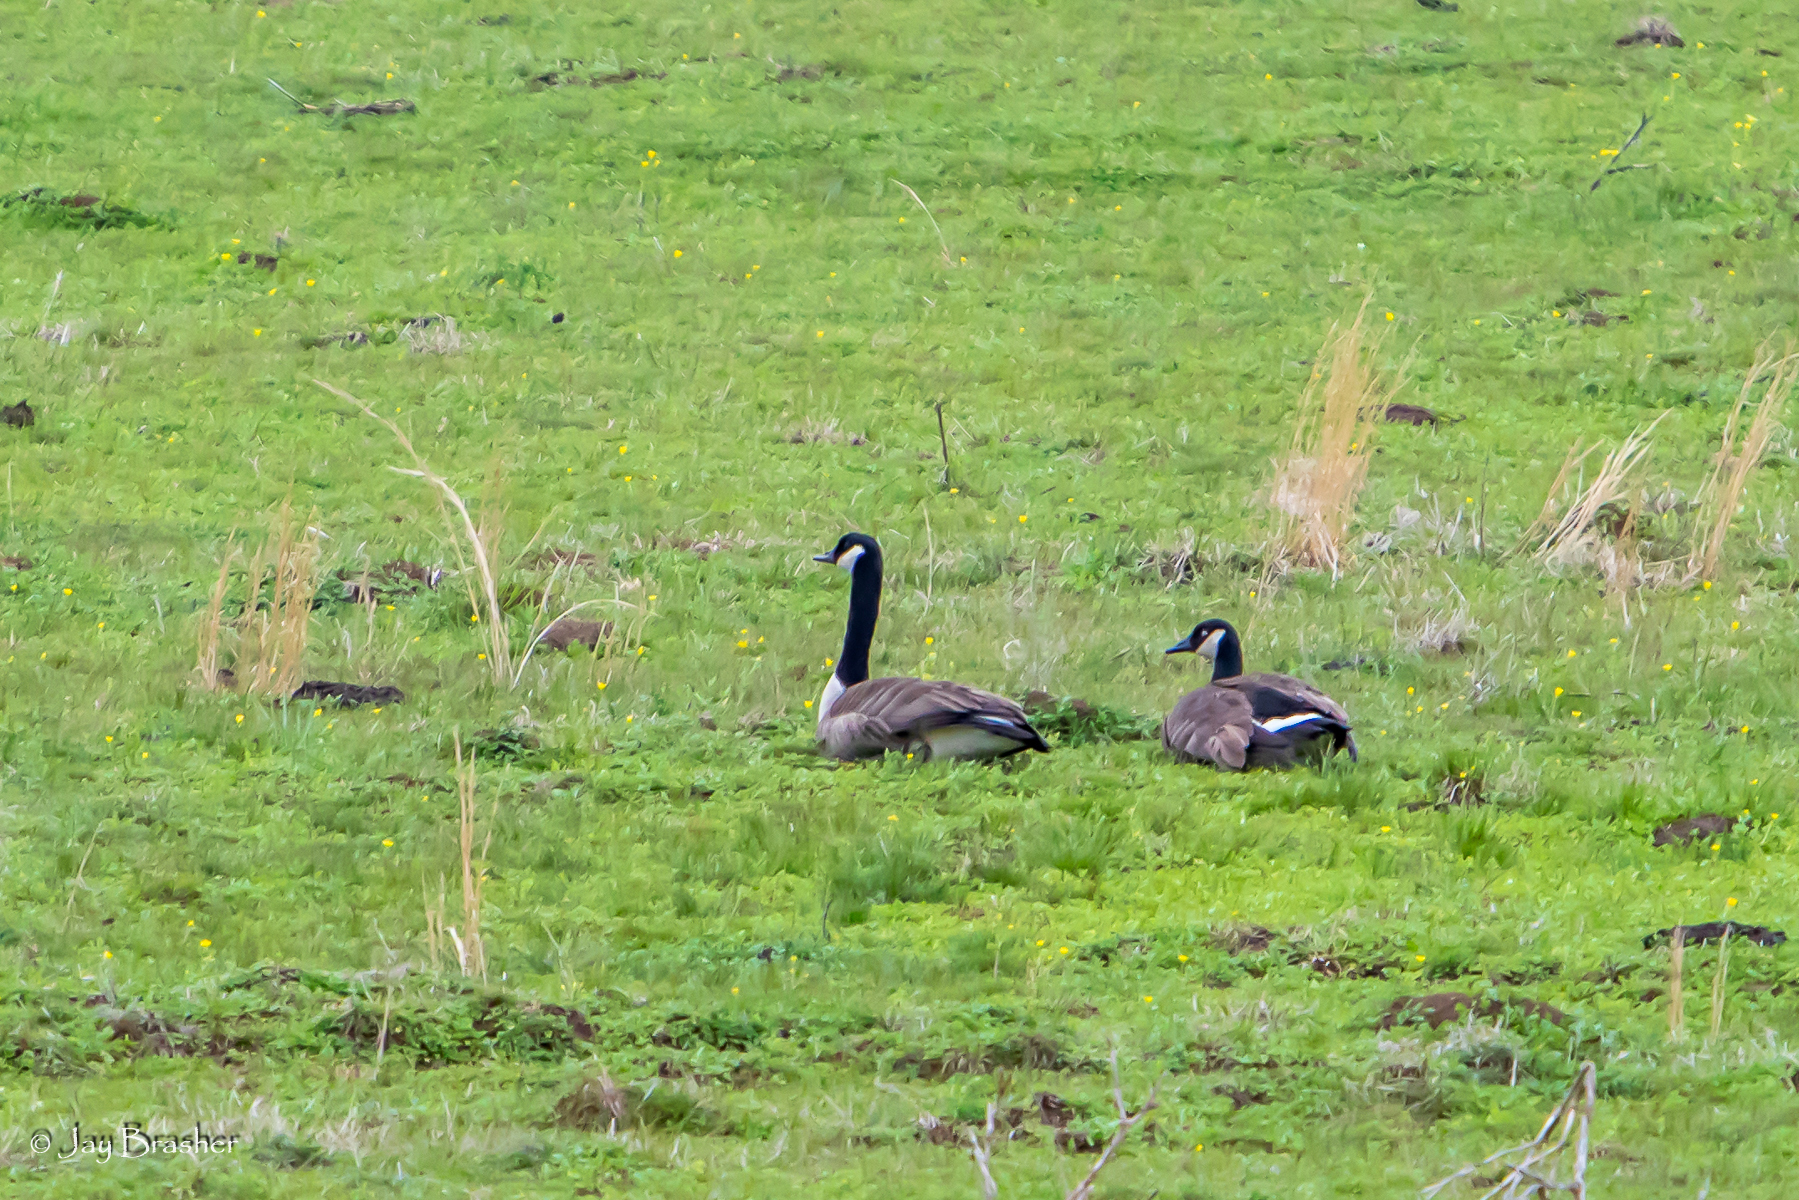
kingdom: Animalia
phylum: Chordata
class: Aves
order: Anseriformes
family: Anatidae
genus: Branta
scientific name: Branta canadensis
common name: Canada goose
